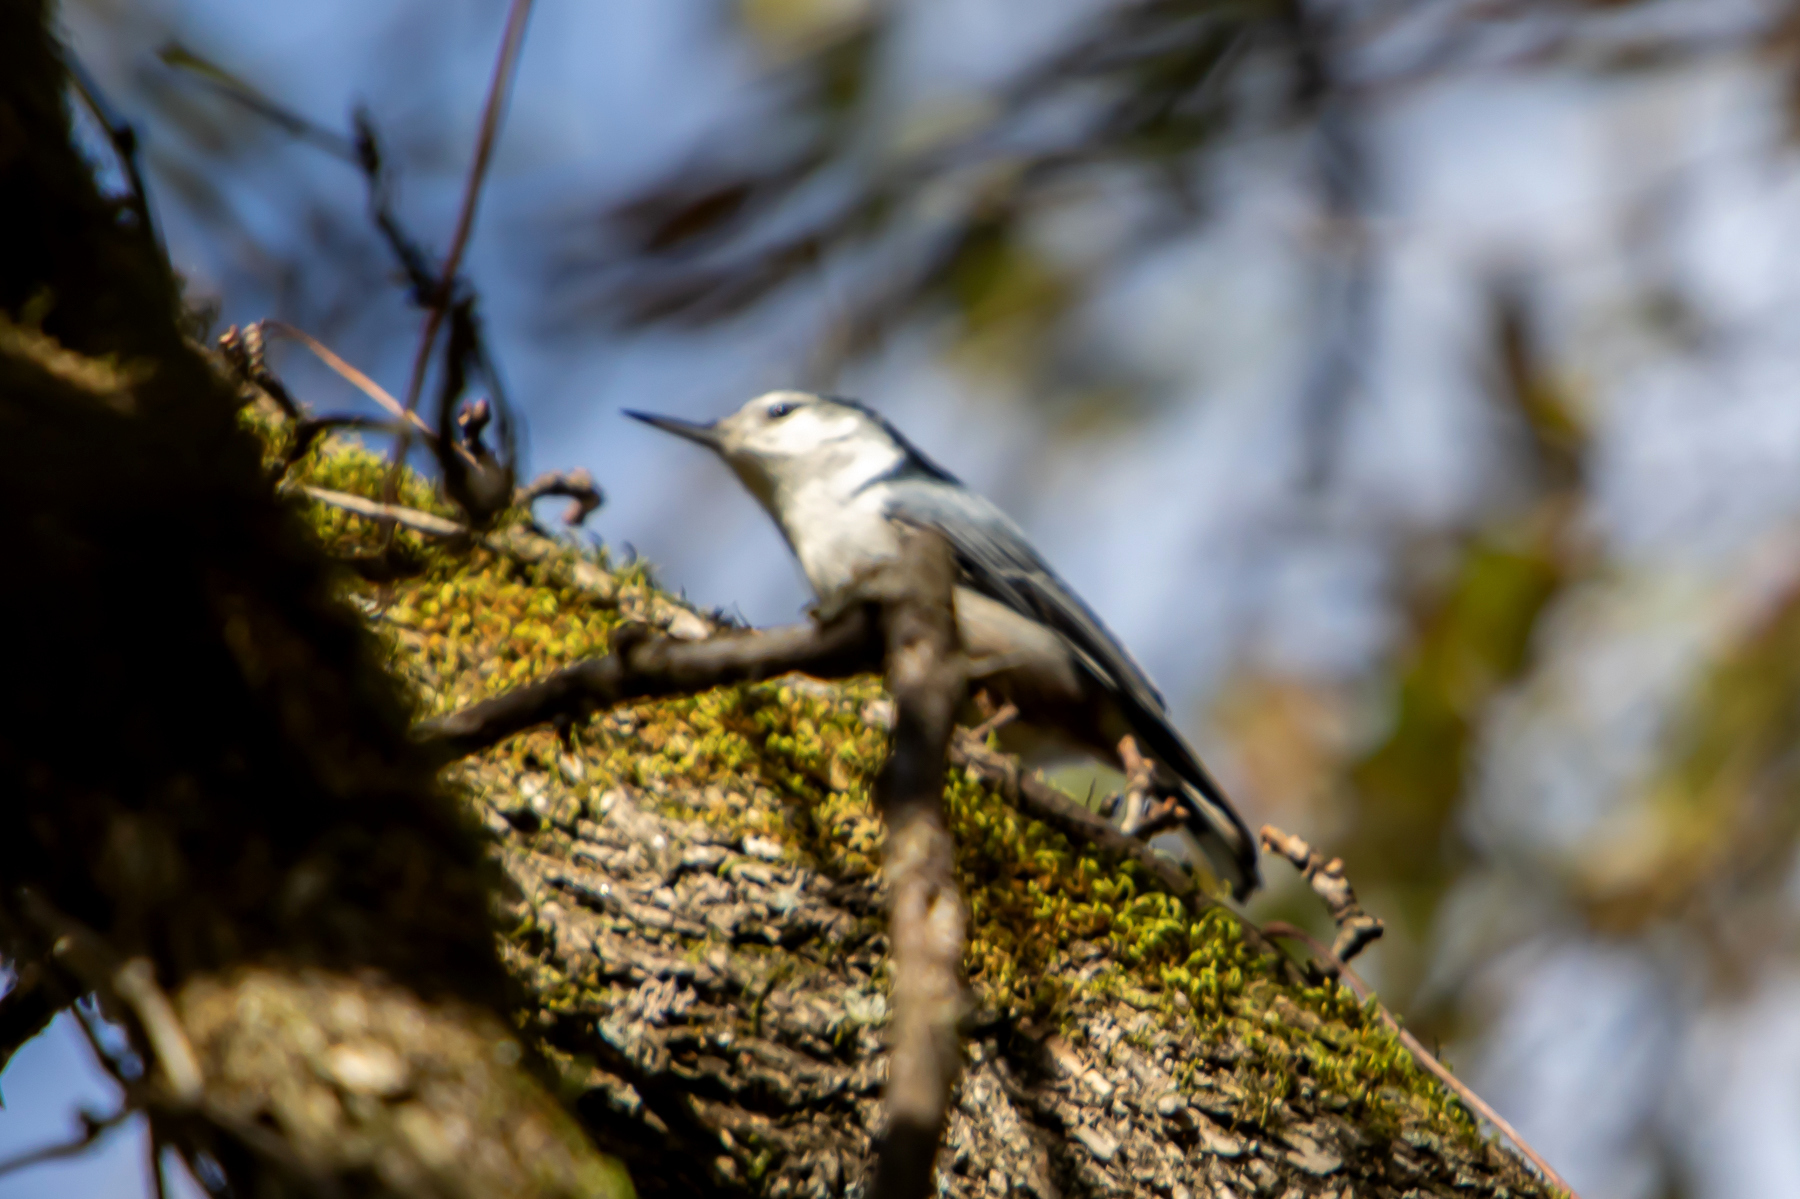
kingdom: Animalia
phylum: Chordata
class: Aves
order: Passeriformes
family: Sittidae
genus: Sitta
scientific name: Sitta carolinensis
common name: White-breasted nuthatch
